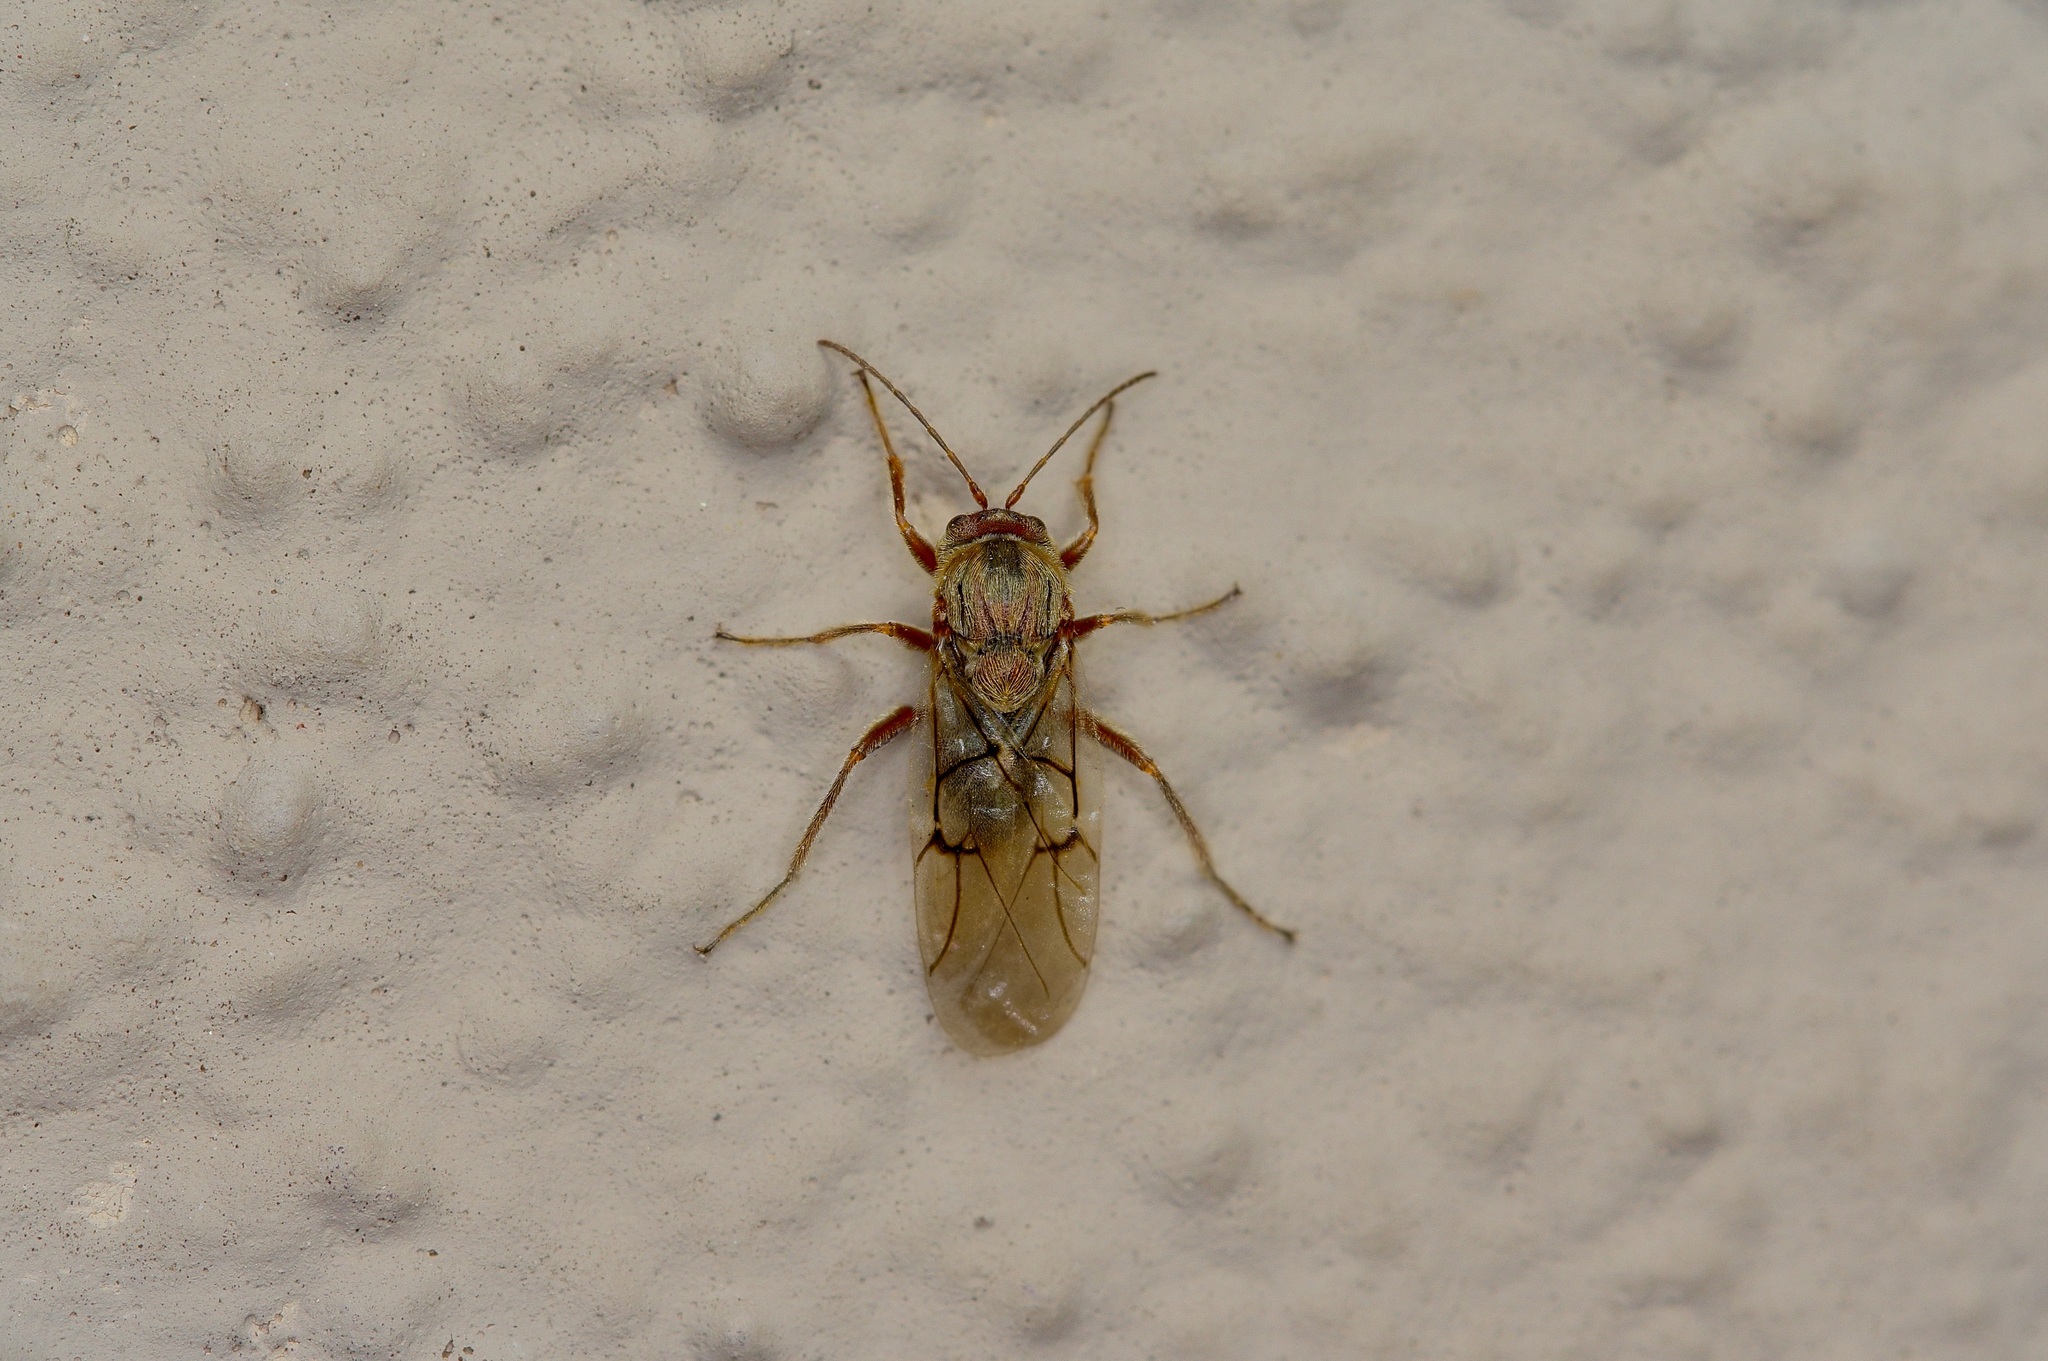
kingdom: Animalia
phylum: Arthropoda
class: Insecta
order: Hymenoptera
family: Cynipidae
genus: Disholcaspis
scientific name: Disholcaspis
